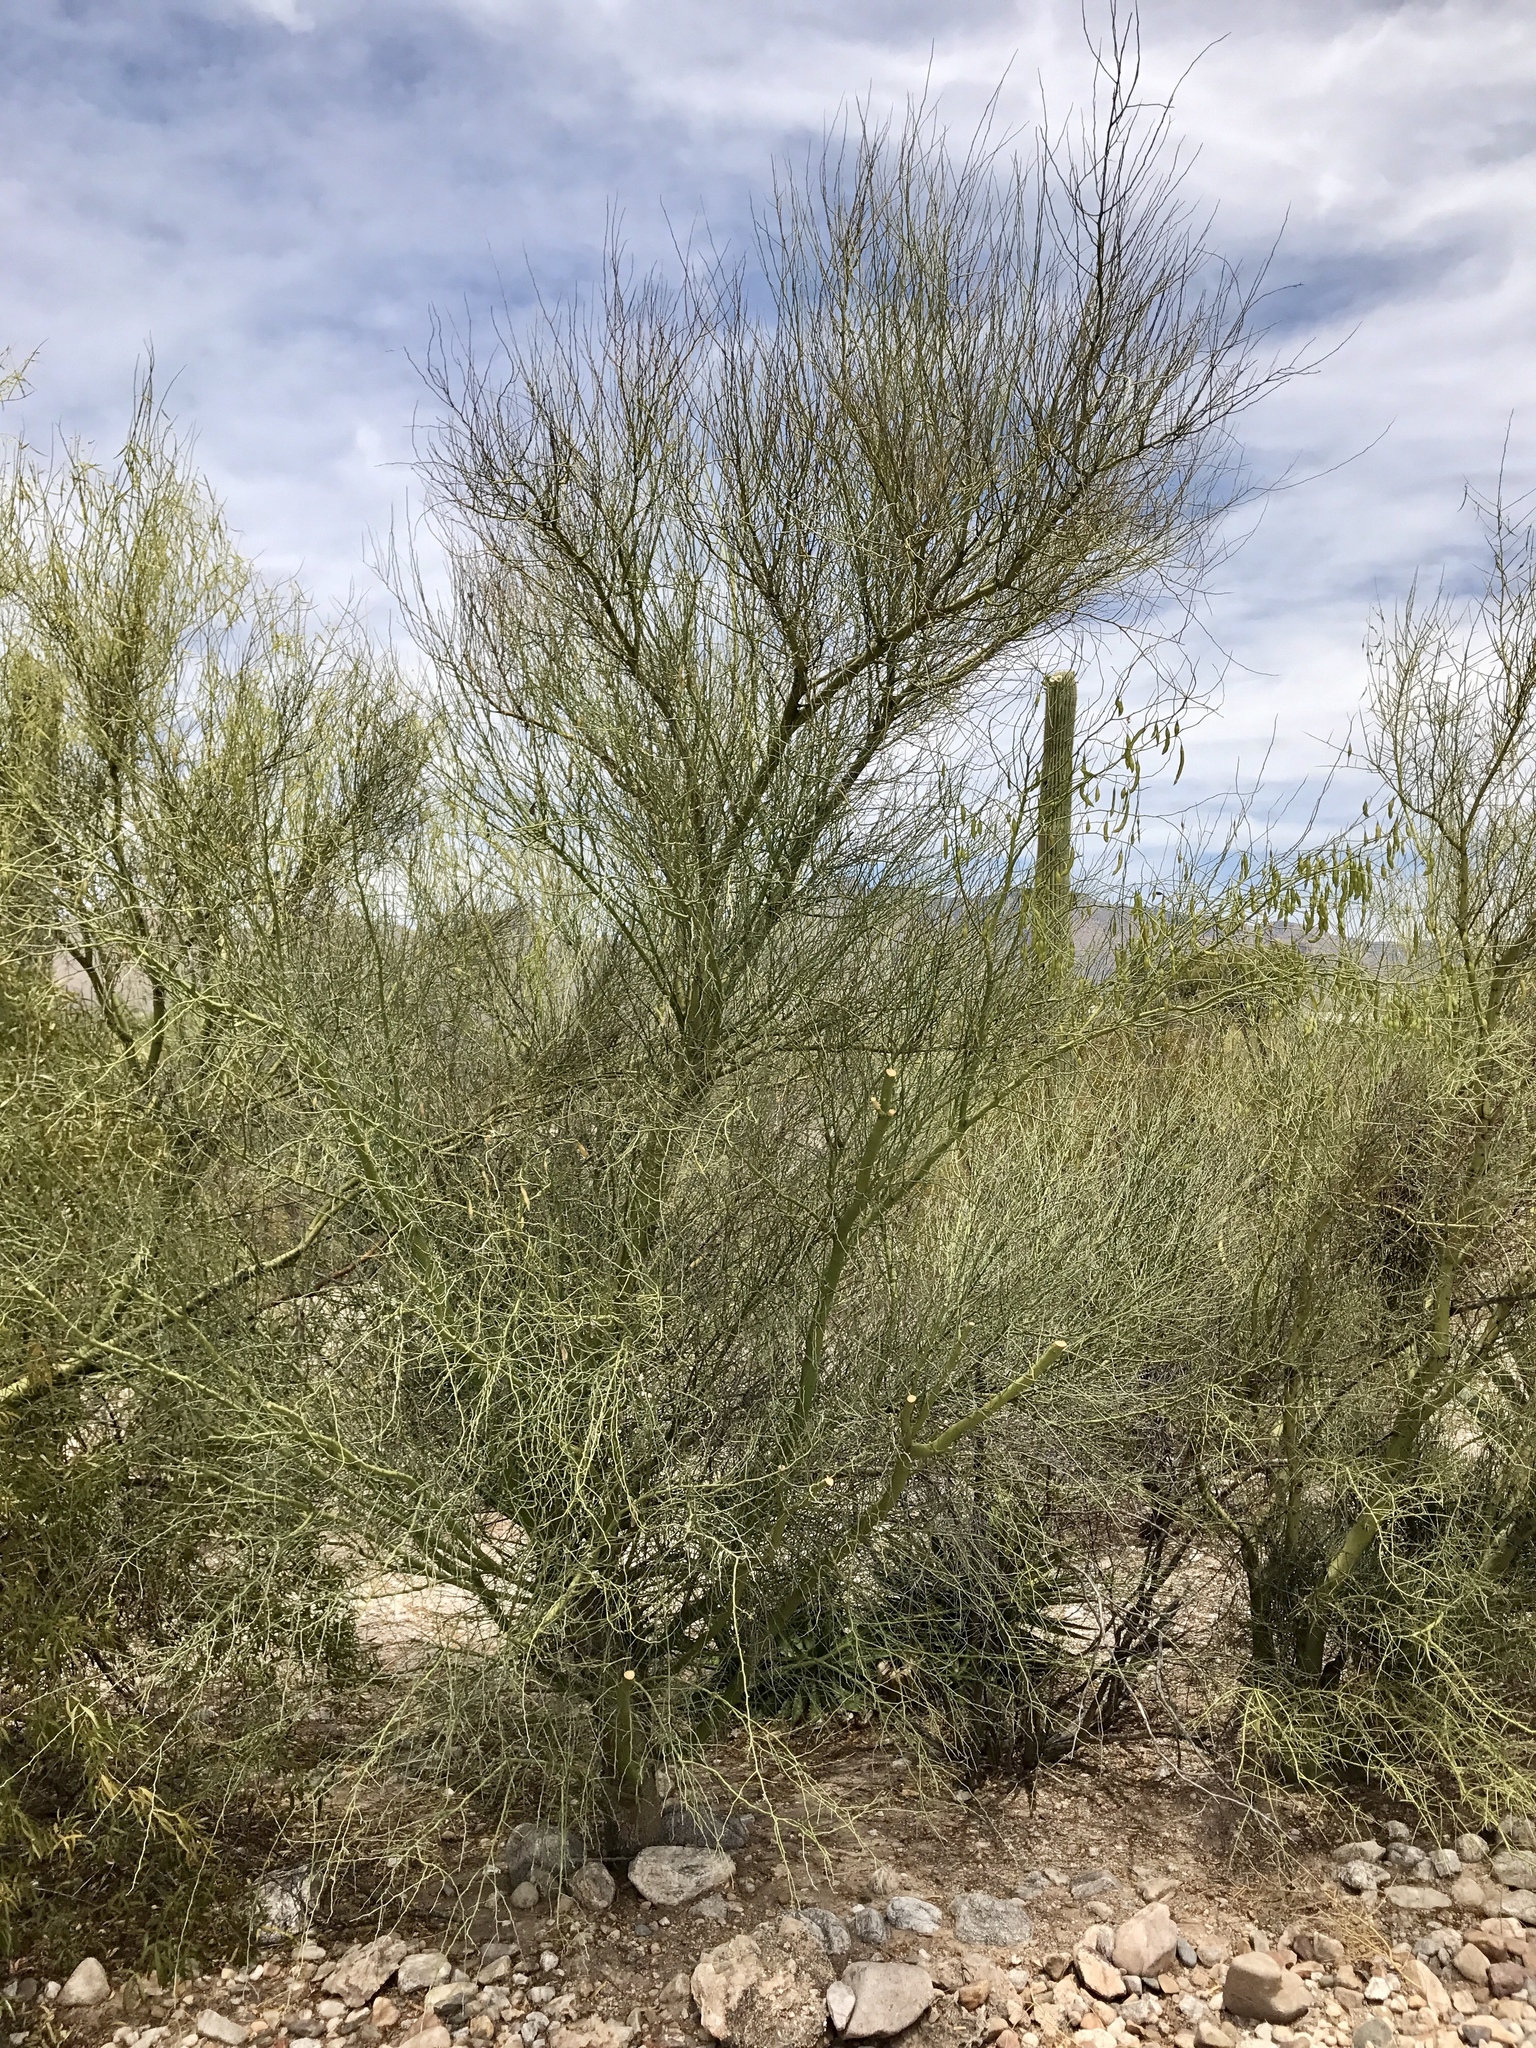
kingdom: Plantae
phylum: Tracheophyta
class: Magnoliopsida
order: Fabales
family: Fabaceae
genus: Parkinsonia
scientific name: Parkinsonia florida
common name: Blue paloverde
